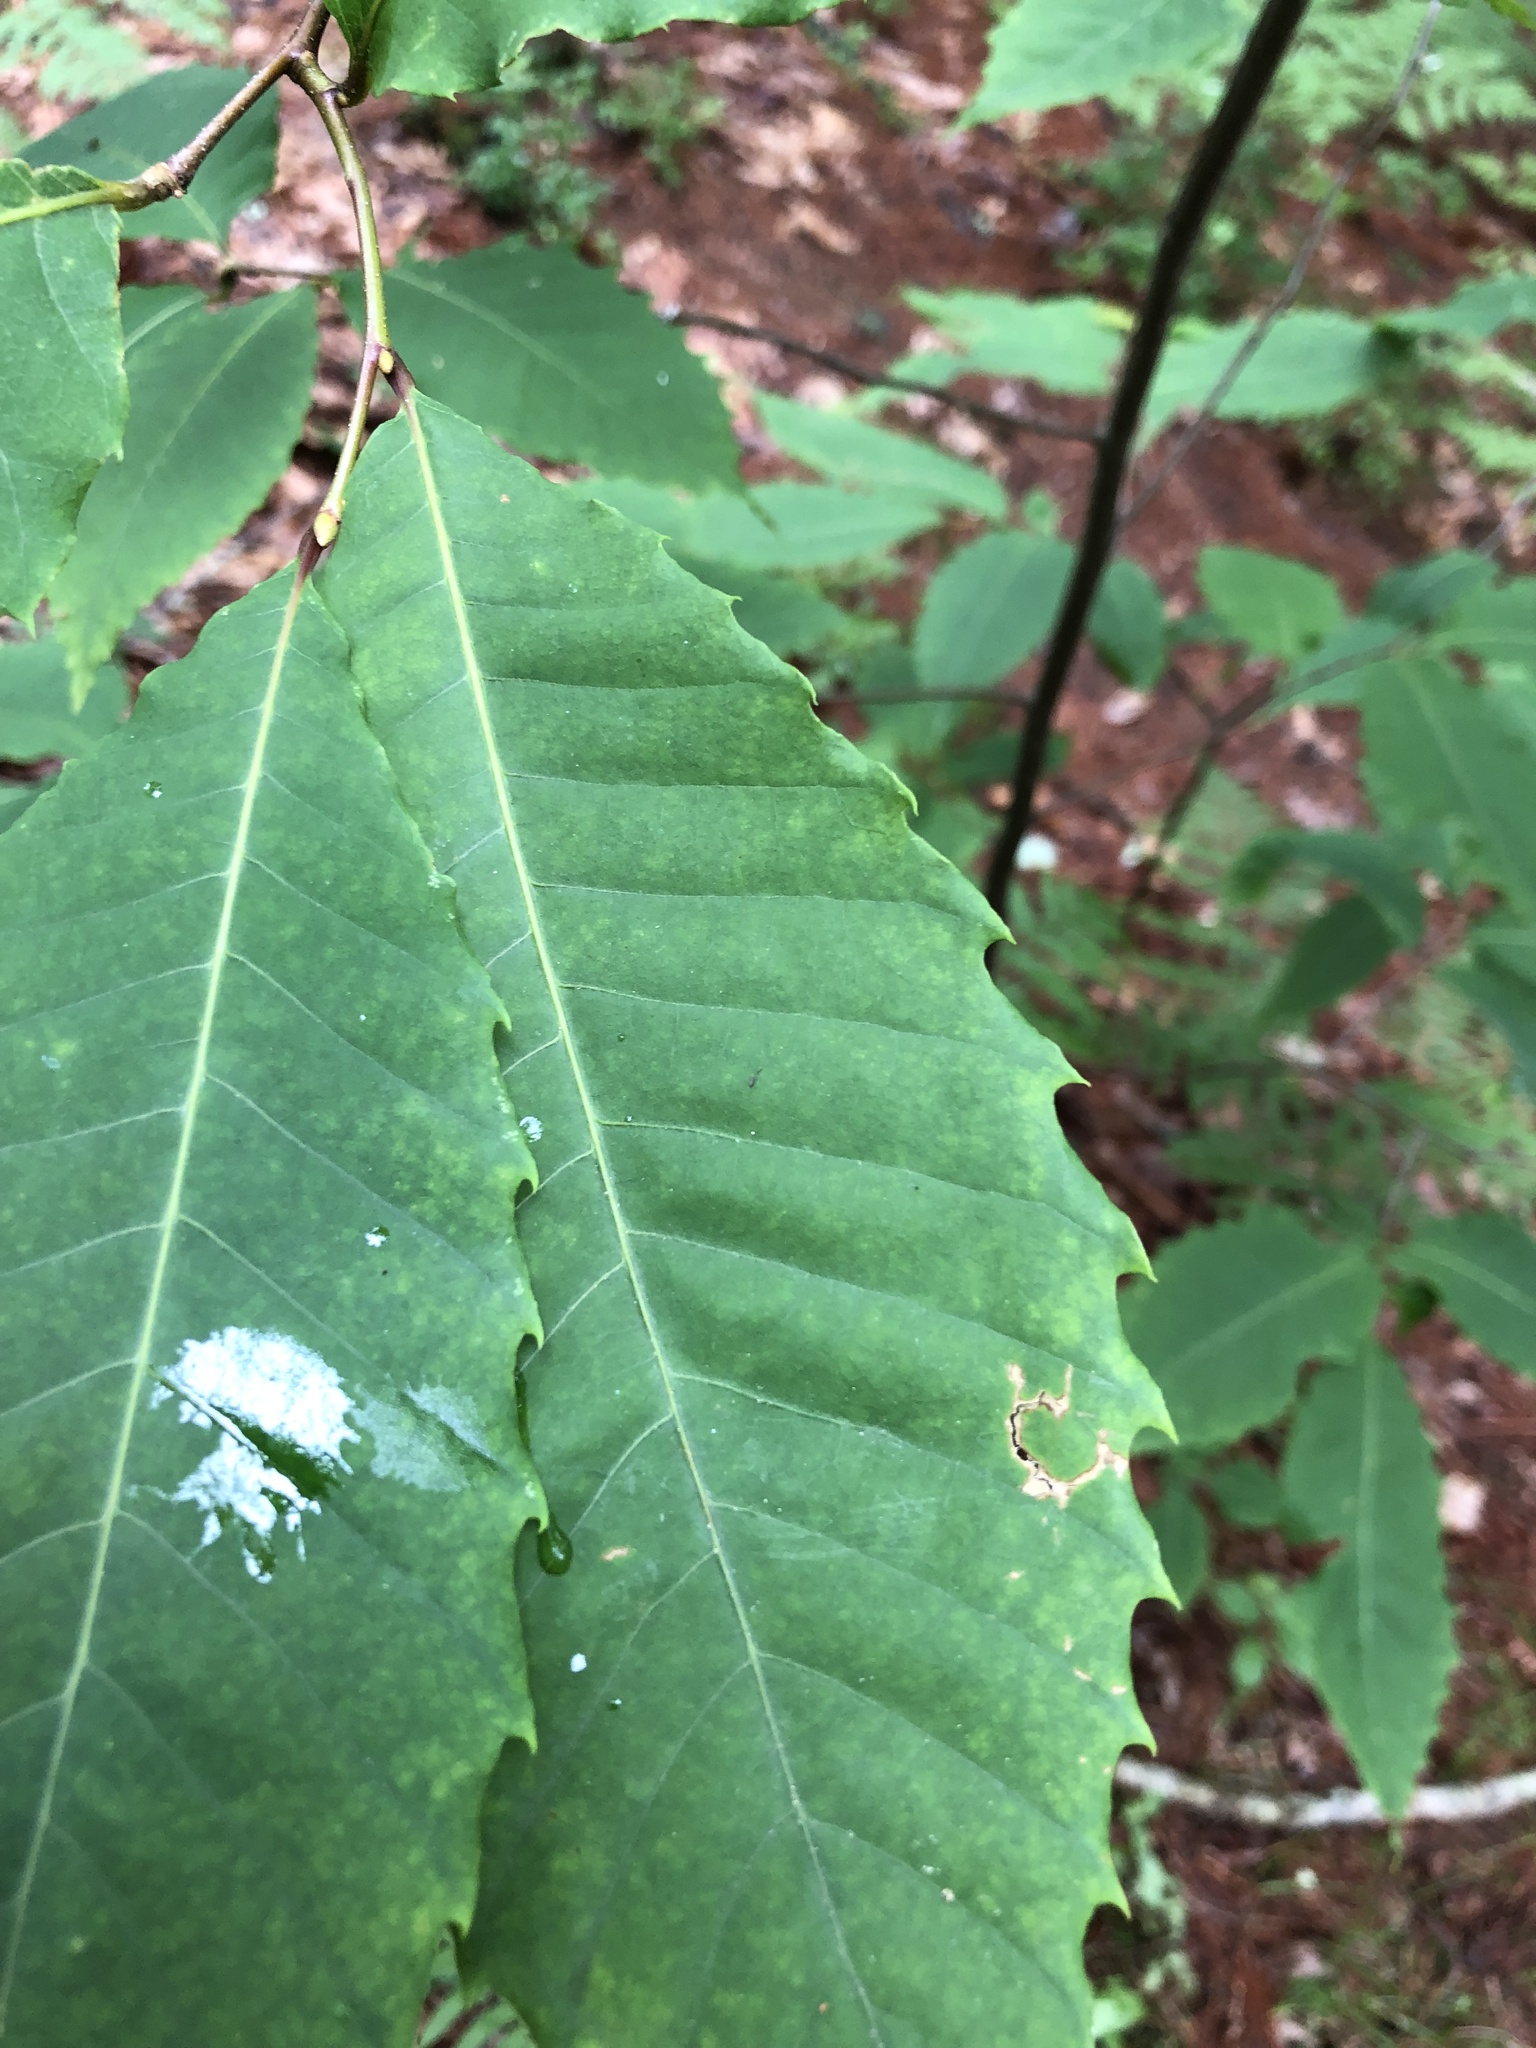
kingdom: Plantae
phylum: Tracheophyta
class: Magnoliopsida
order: Fagales
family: Fagaceae
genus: Castanea
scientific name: Castanea dentata
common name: American chestnut
